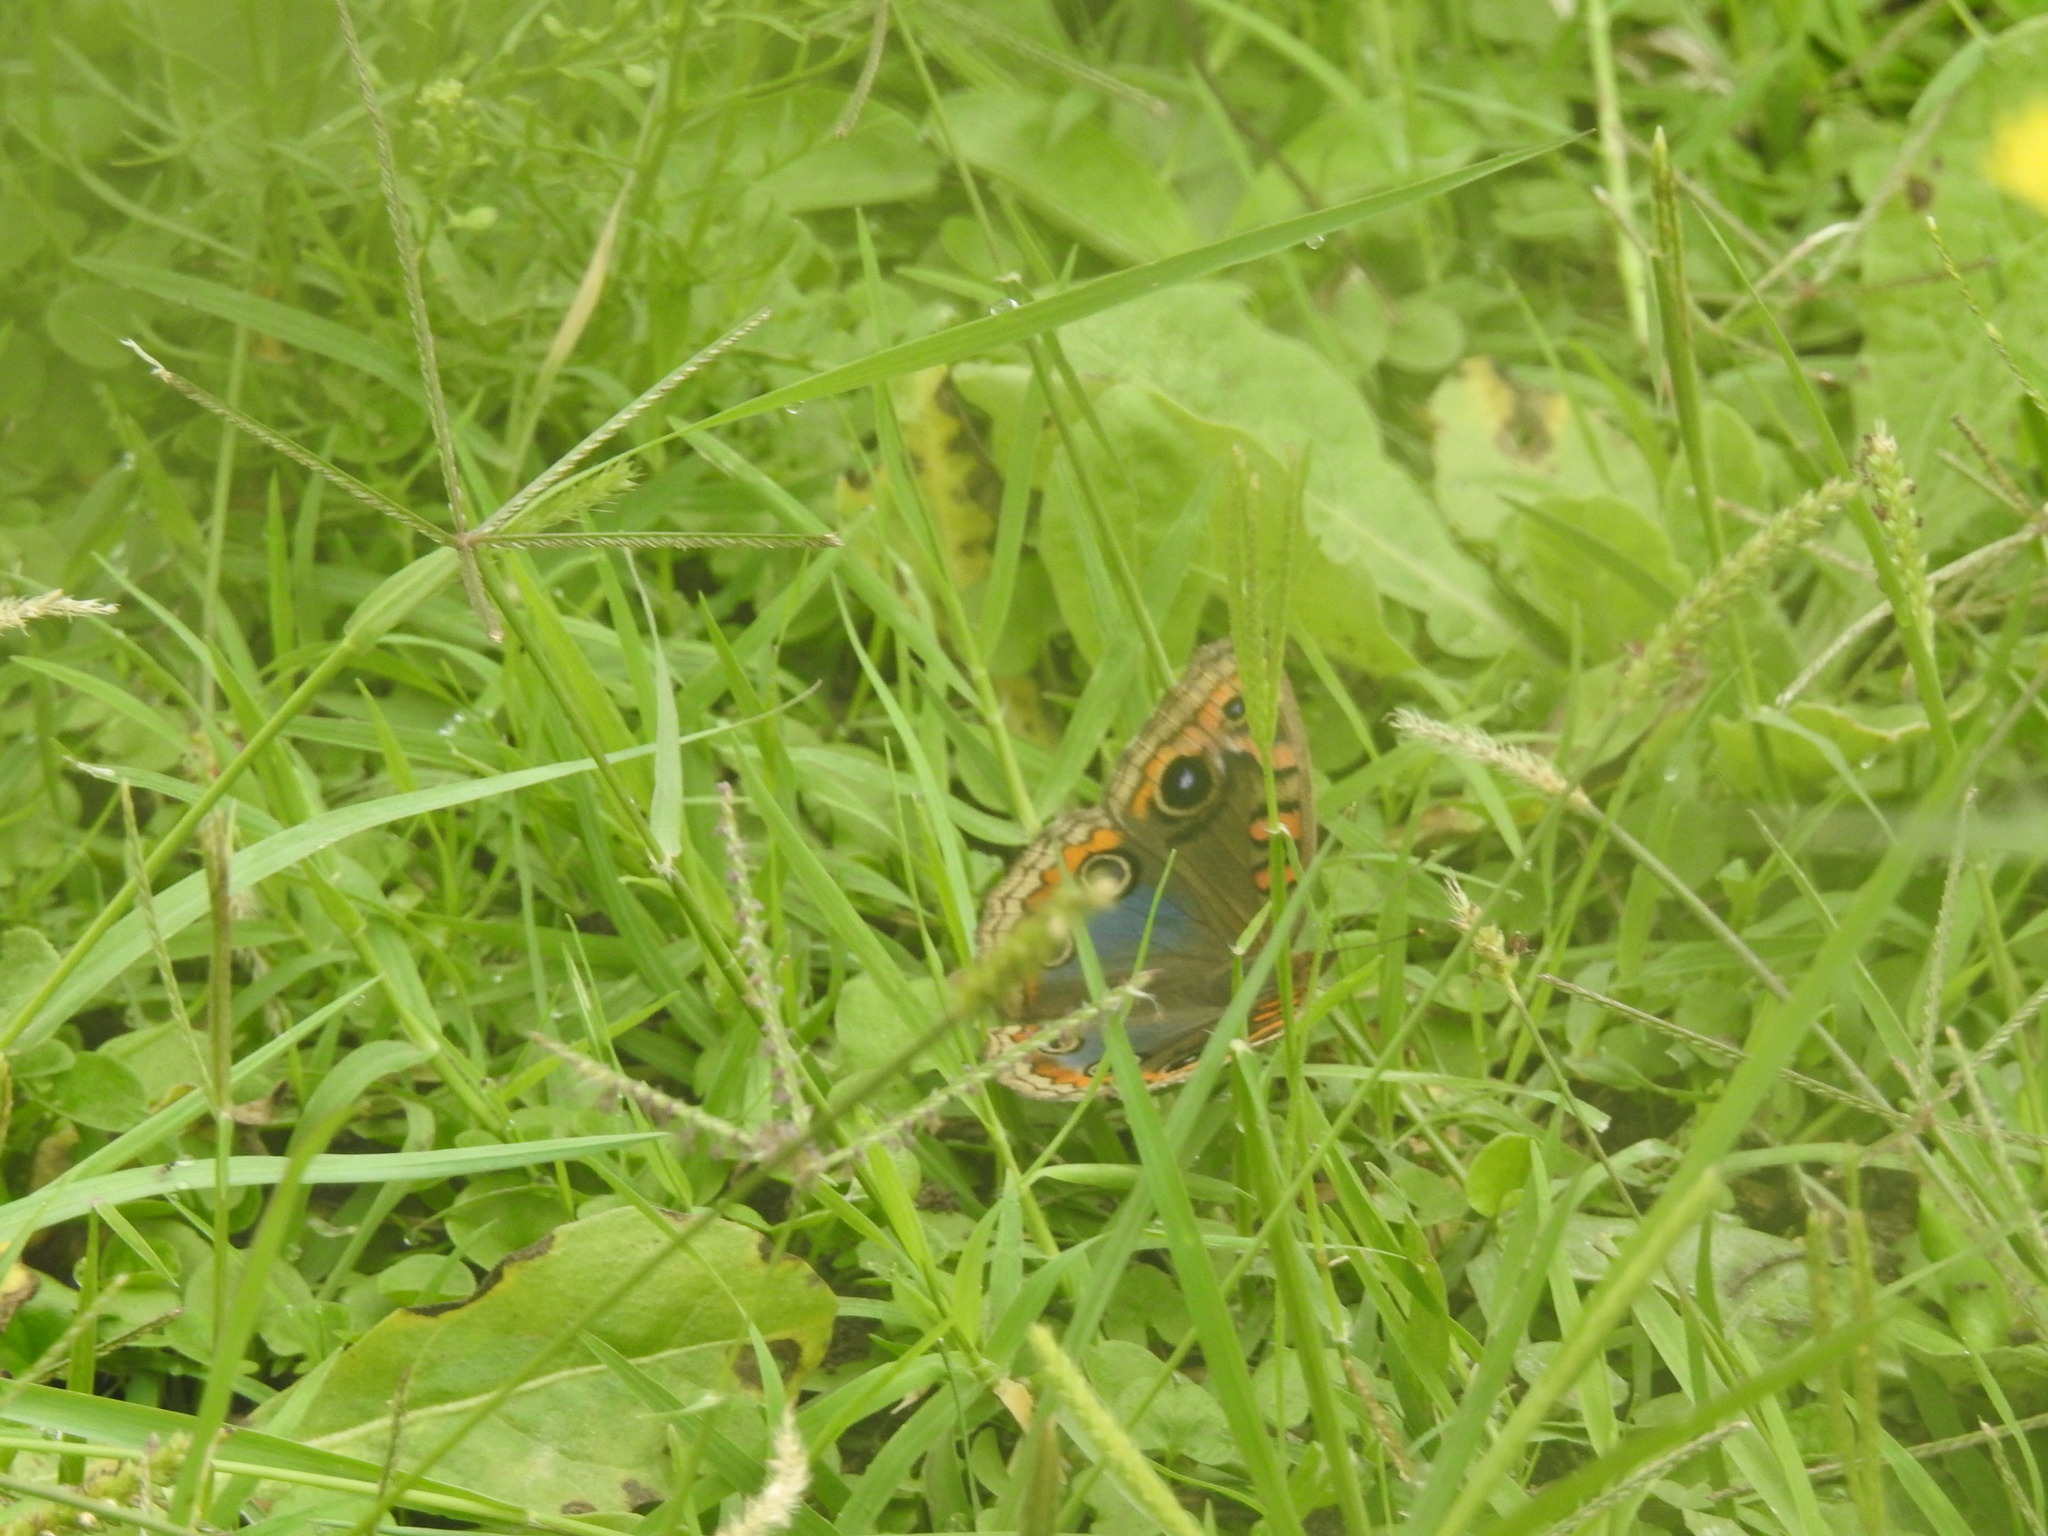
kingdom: Animalia
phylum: Arthropoda
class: Insecta
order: Lepidoptera
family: Nymphalidae
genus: Junonia
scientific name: Junonia lavinia
